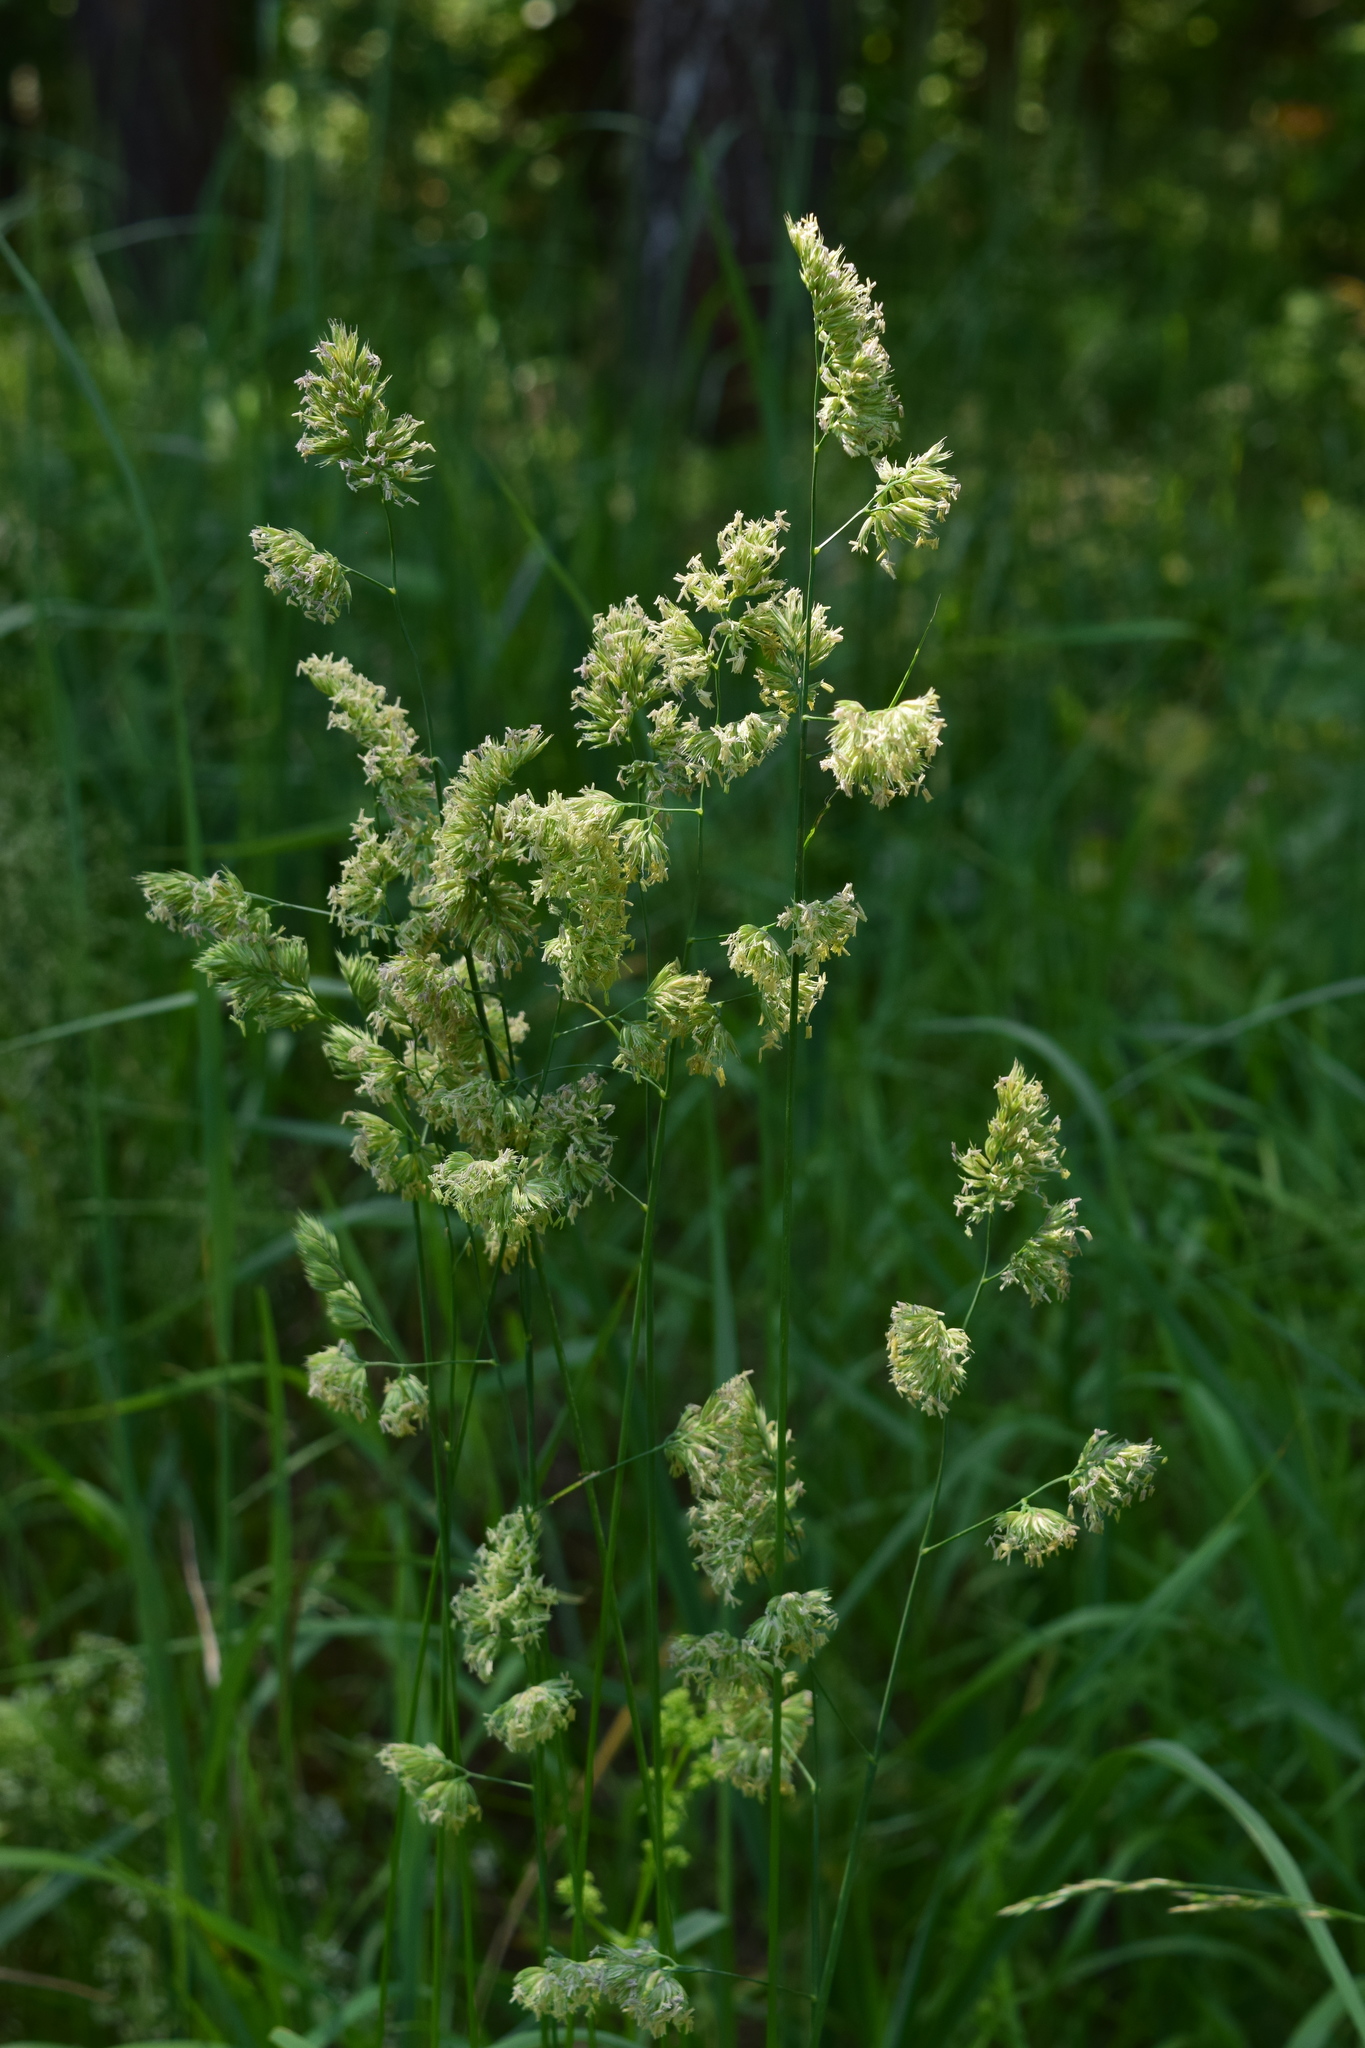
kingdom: Plantae
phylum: Tracheophyta
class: Liliopsida
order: Poales
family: Poaceae
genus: Dactylis
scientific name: Dactylis glomerata
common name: Orchardgrass
